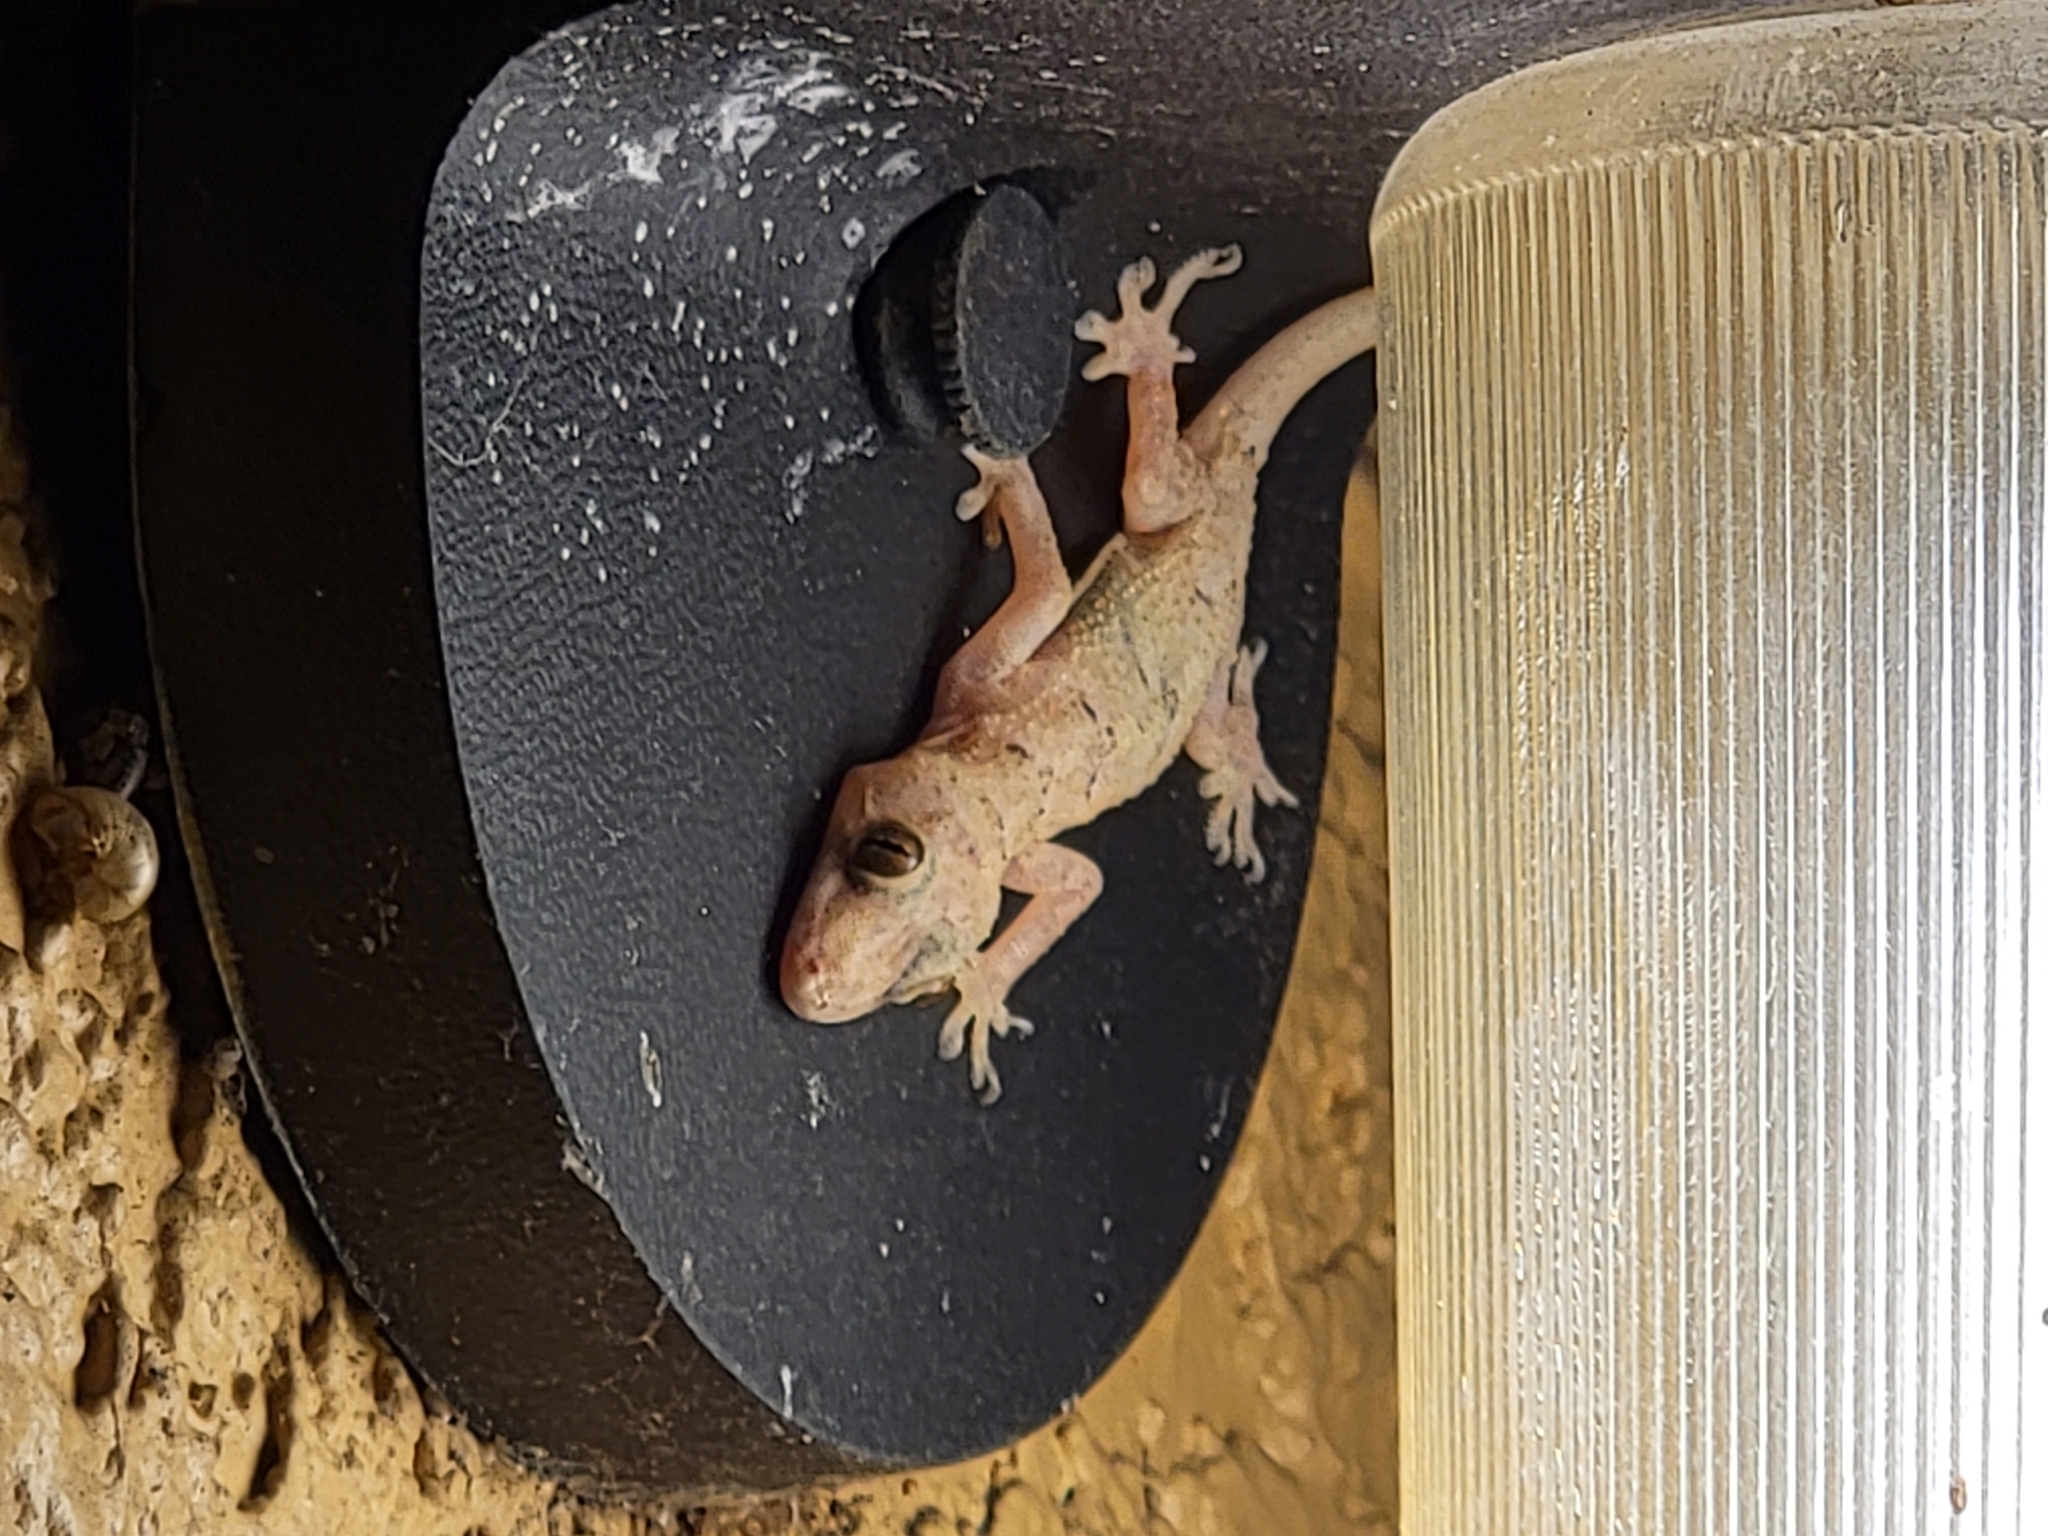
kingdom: Animalia
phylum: Chordata
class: Squamata
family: Gekkonidae
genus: Hemidactylus
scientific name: Hemidactylus mabouia
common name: House gecko
